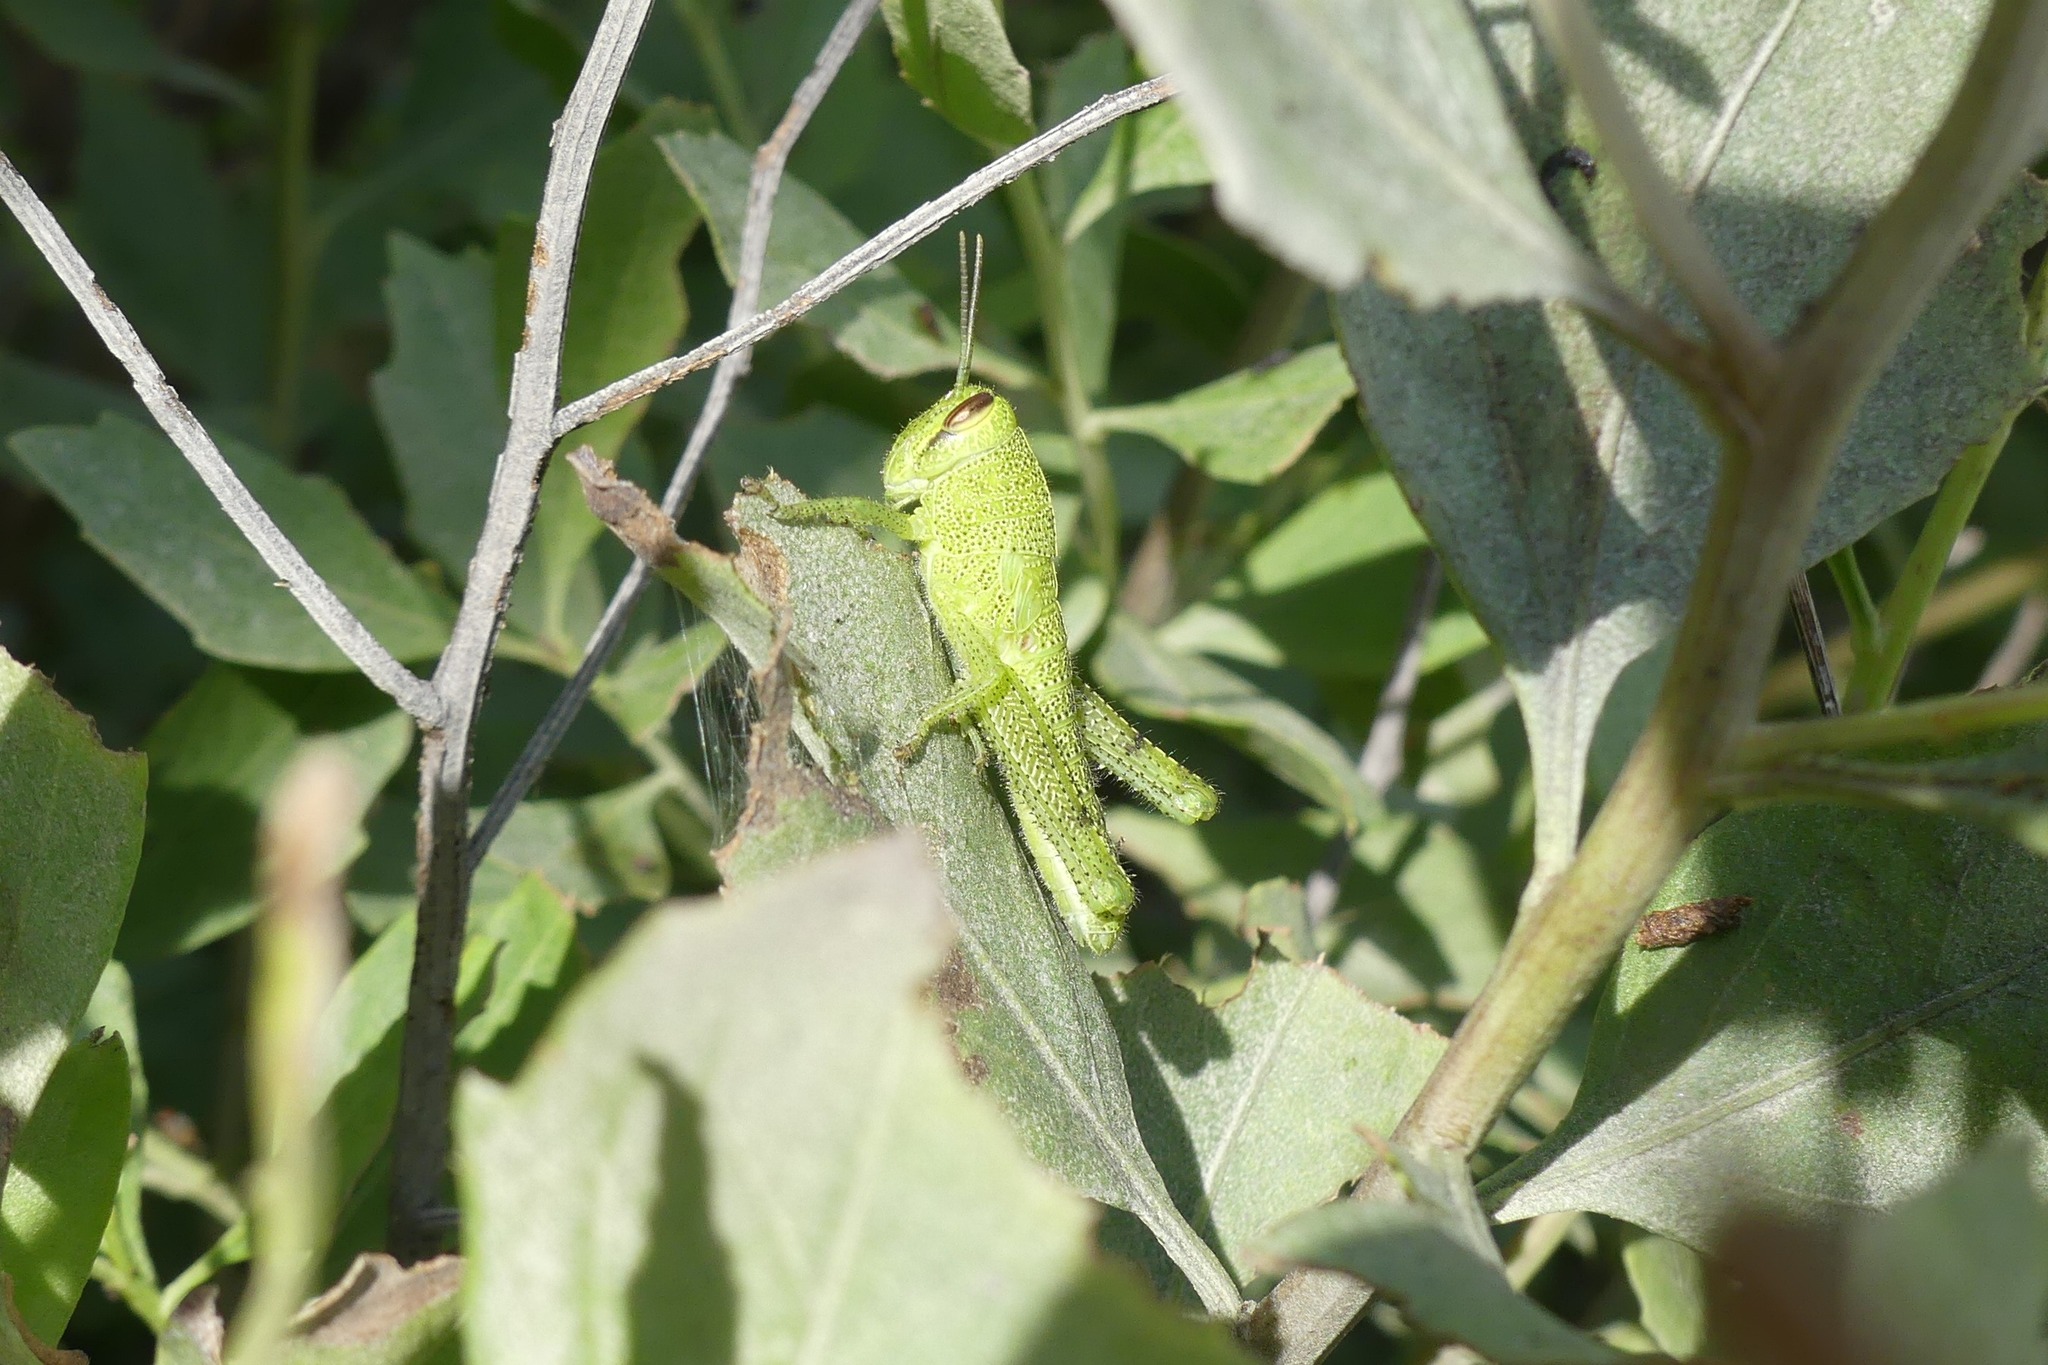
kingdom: Animalia
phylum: Arthropoda
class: Insecta
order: Orthoptera
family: Acrididae
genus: Schistocerca
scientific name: Schistocerca obscura
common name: Obscure bird grasshopper
